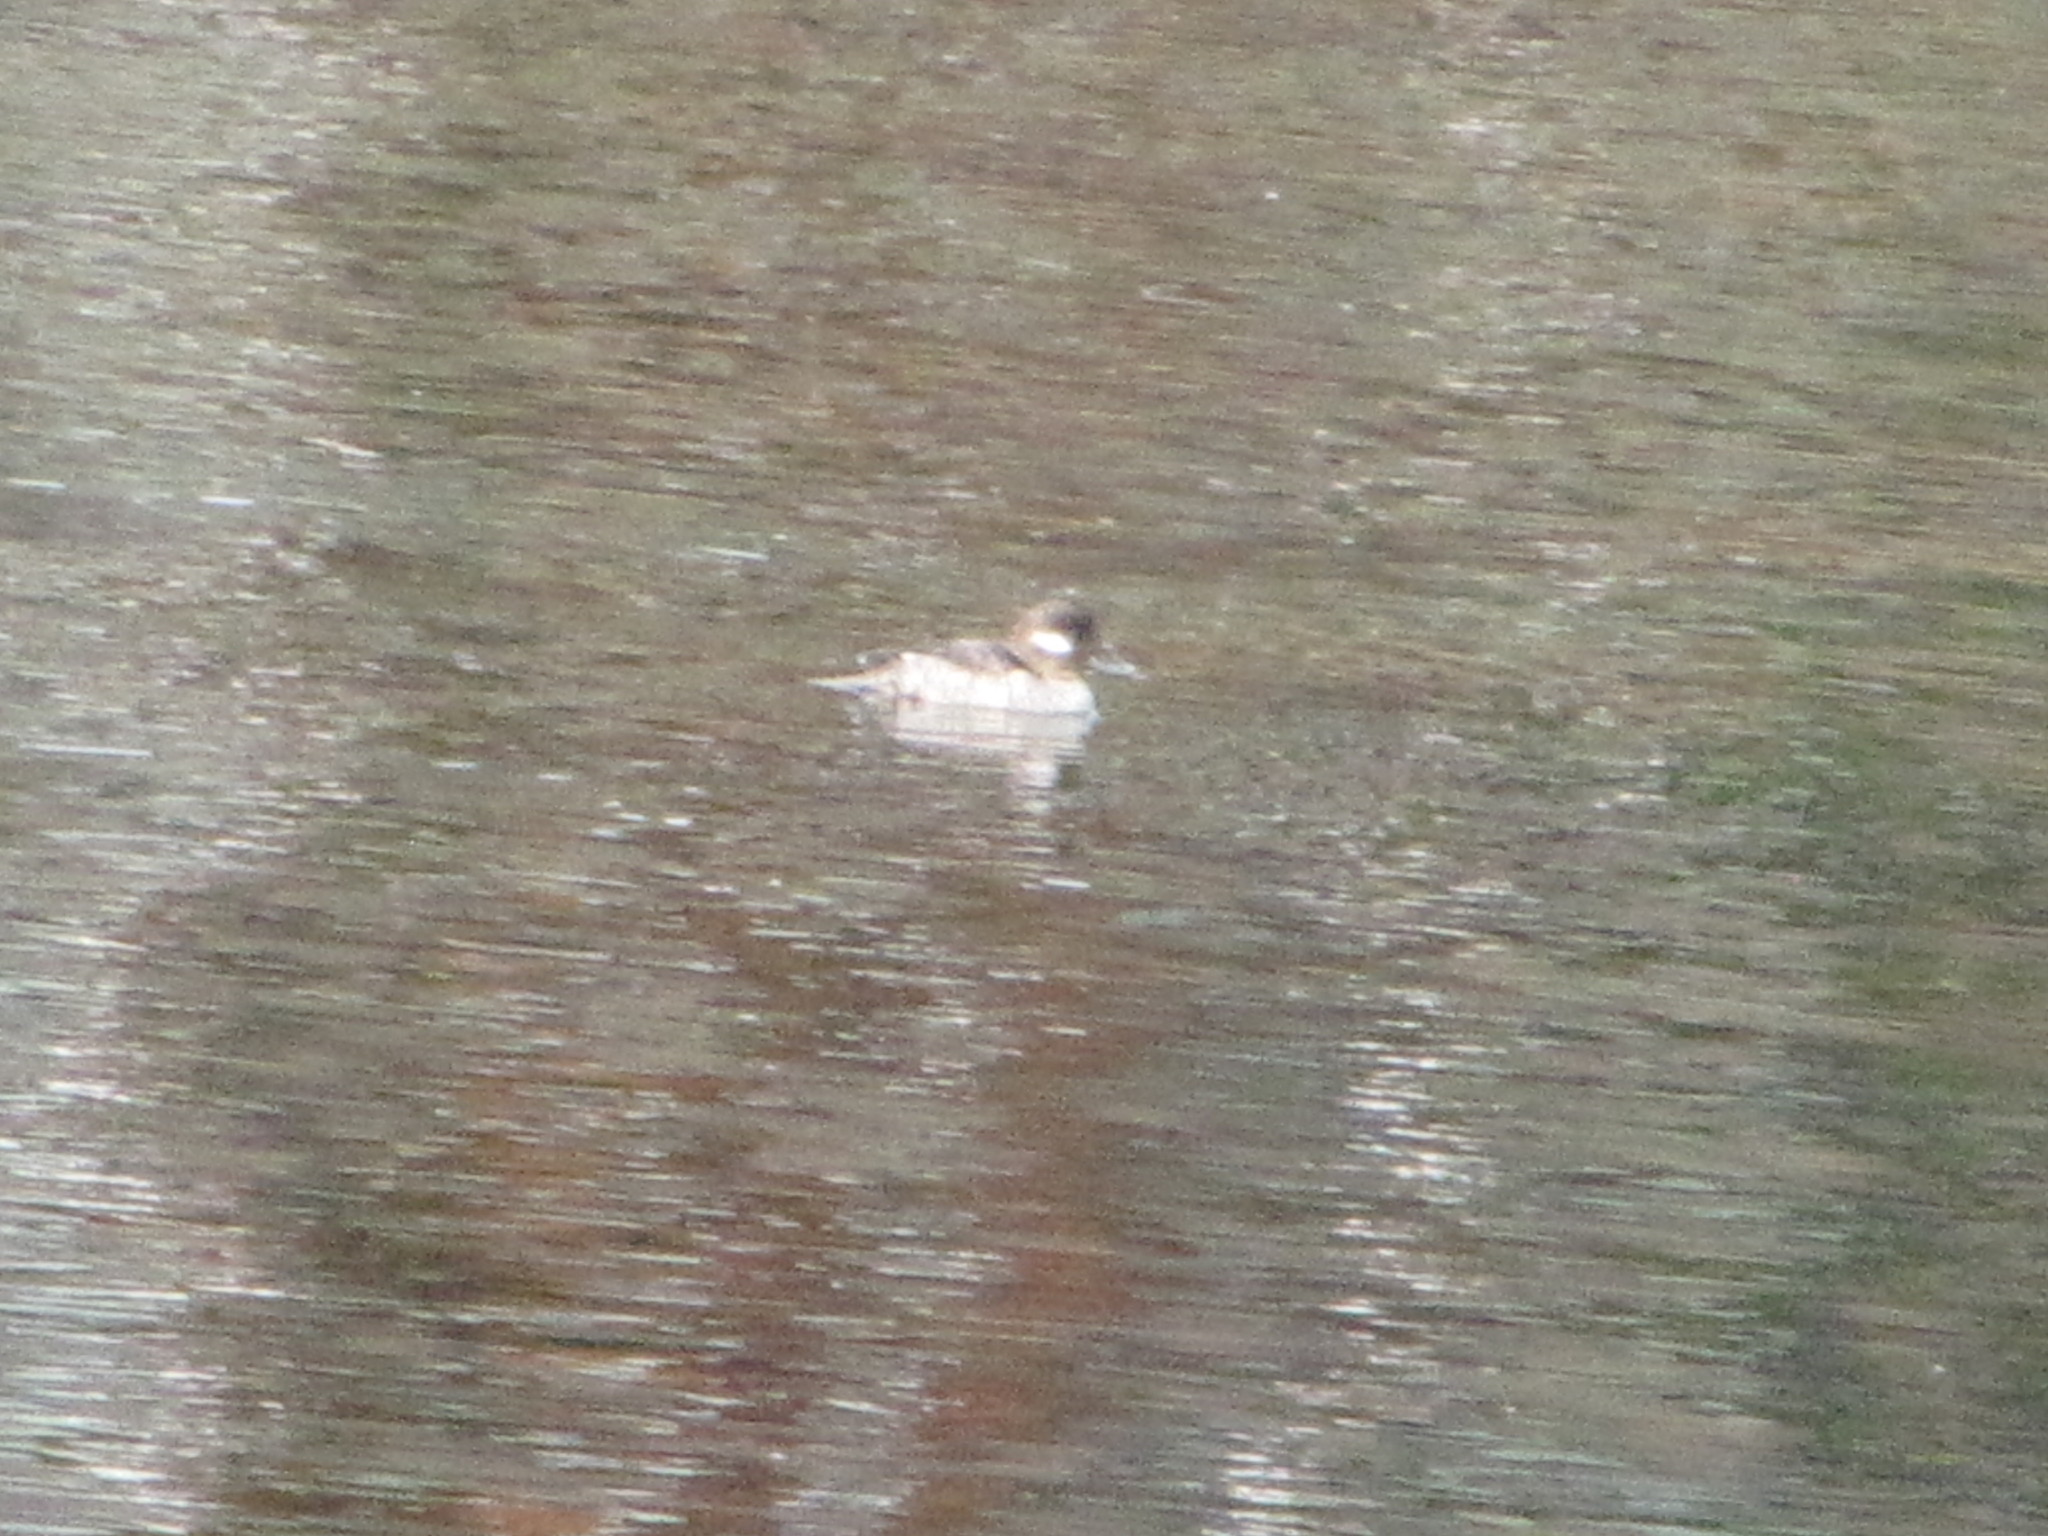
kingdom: Animalia
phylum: Chordata
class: Aves
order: Anseriformes
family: Anatidae
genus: Bucephala
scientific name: Bucephala albeola
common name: Bufflehead
